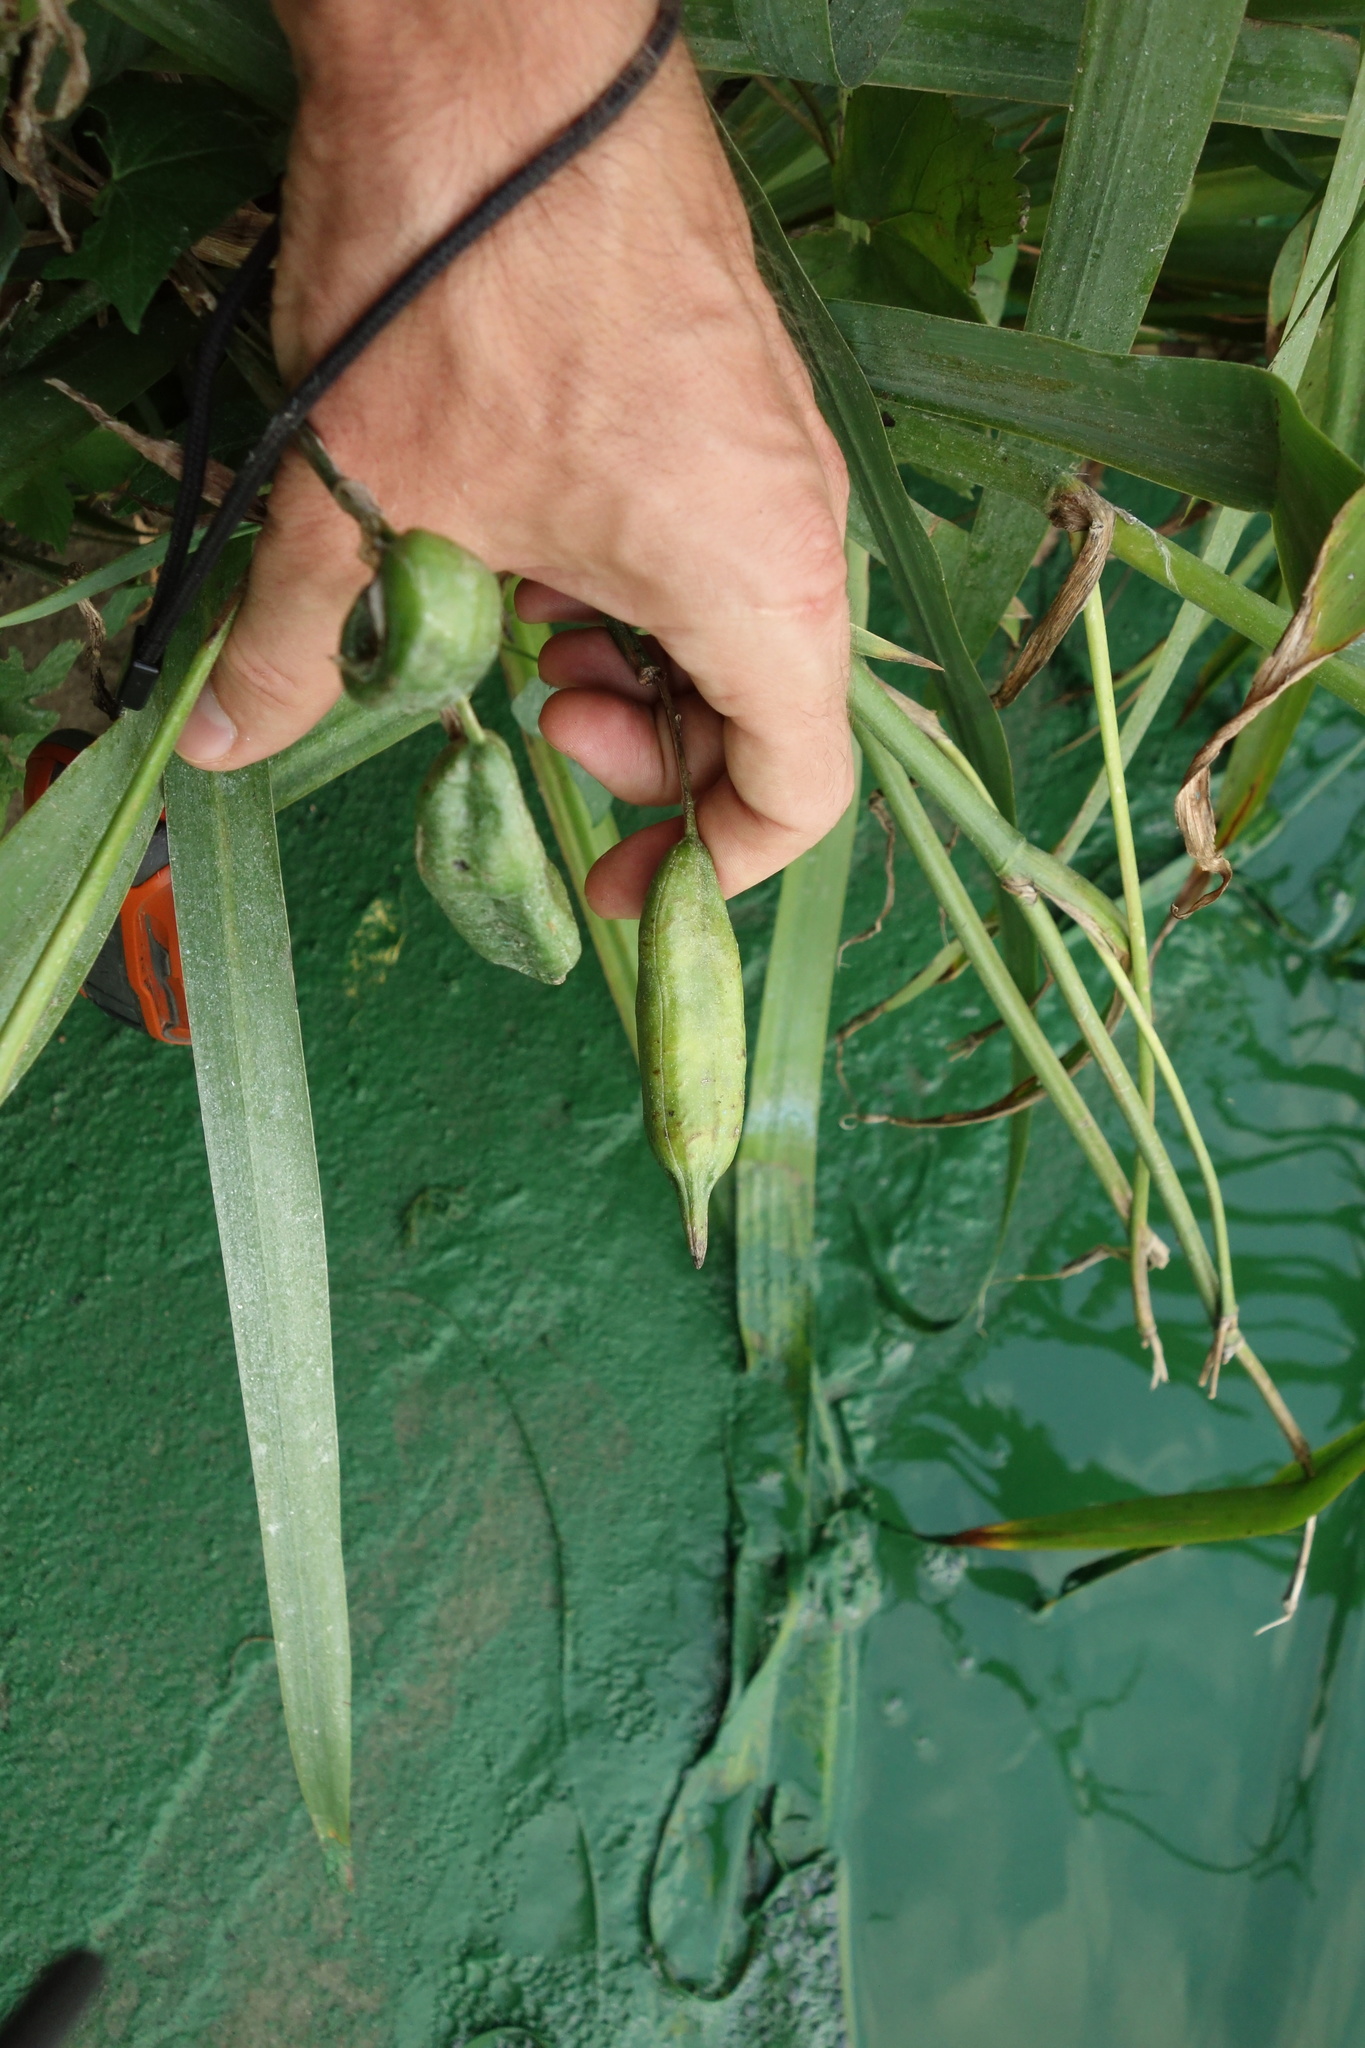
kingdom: Plantae
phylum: Tracheophyta
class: Liliopsida
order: Asparagales
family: Iridaceae
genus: Iris
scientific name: Iris pseudacorus
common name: Yellow flag
